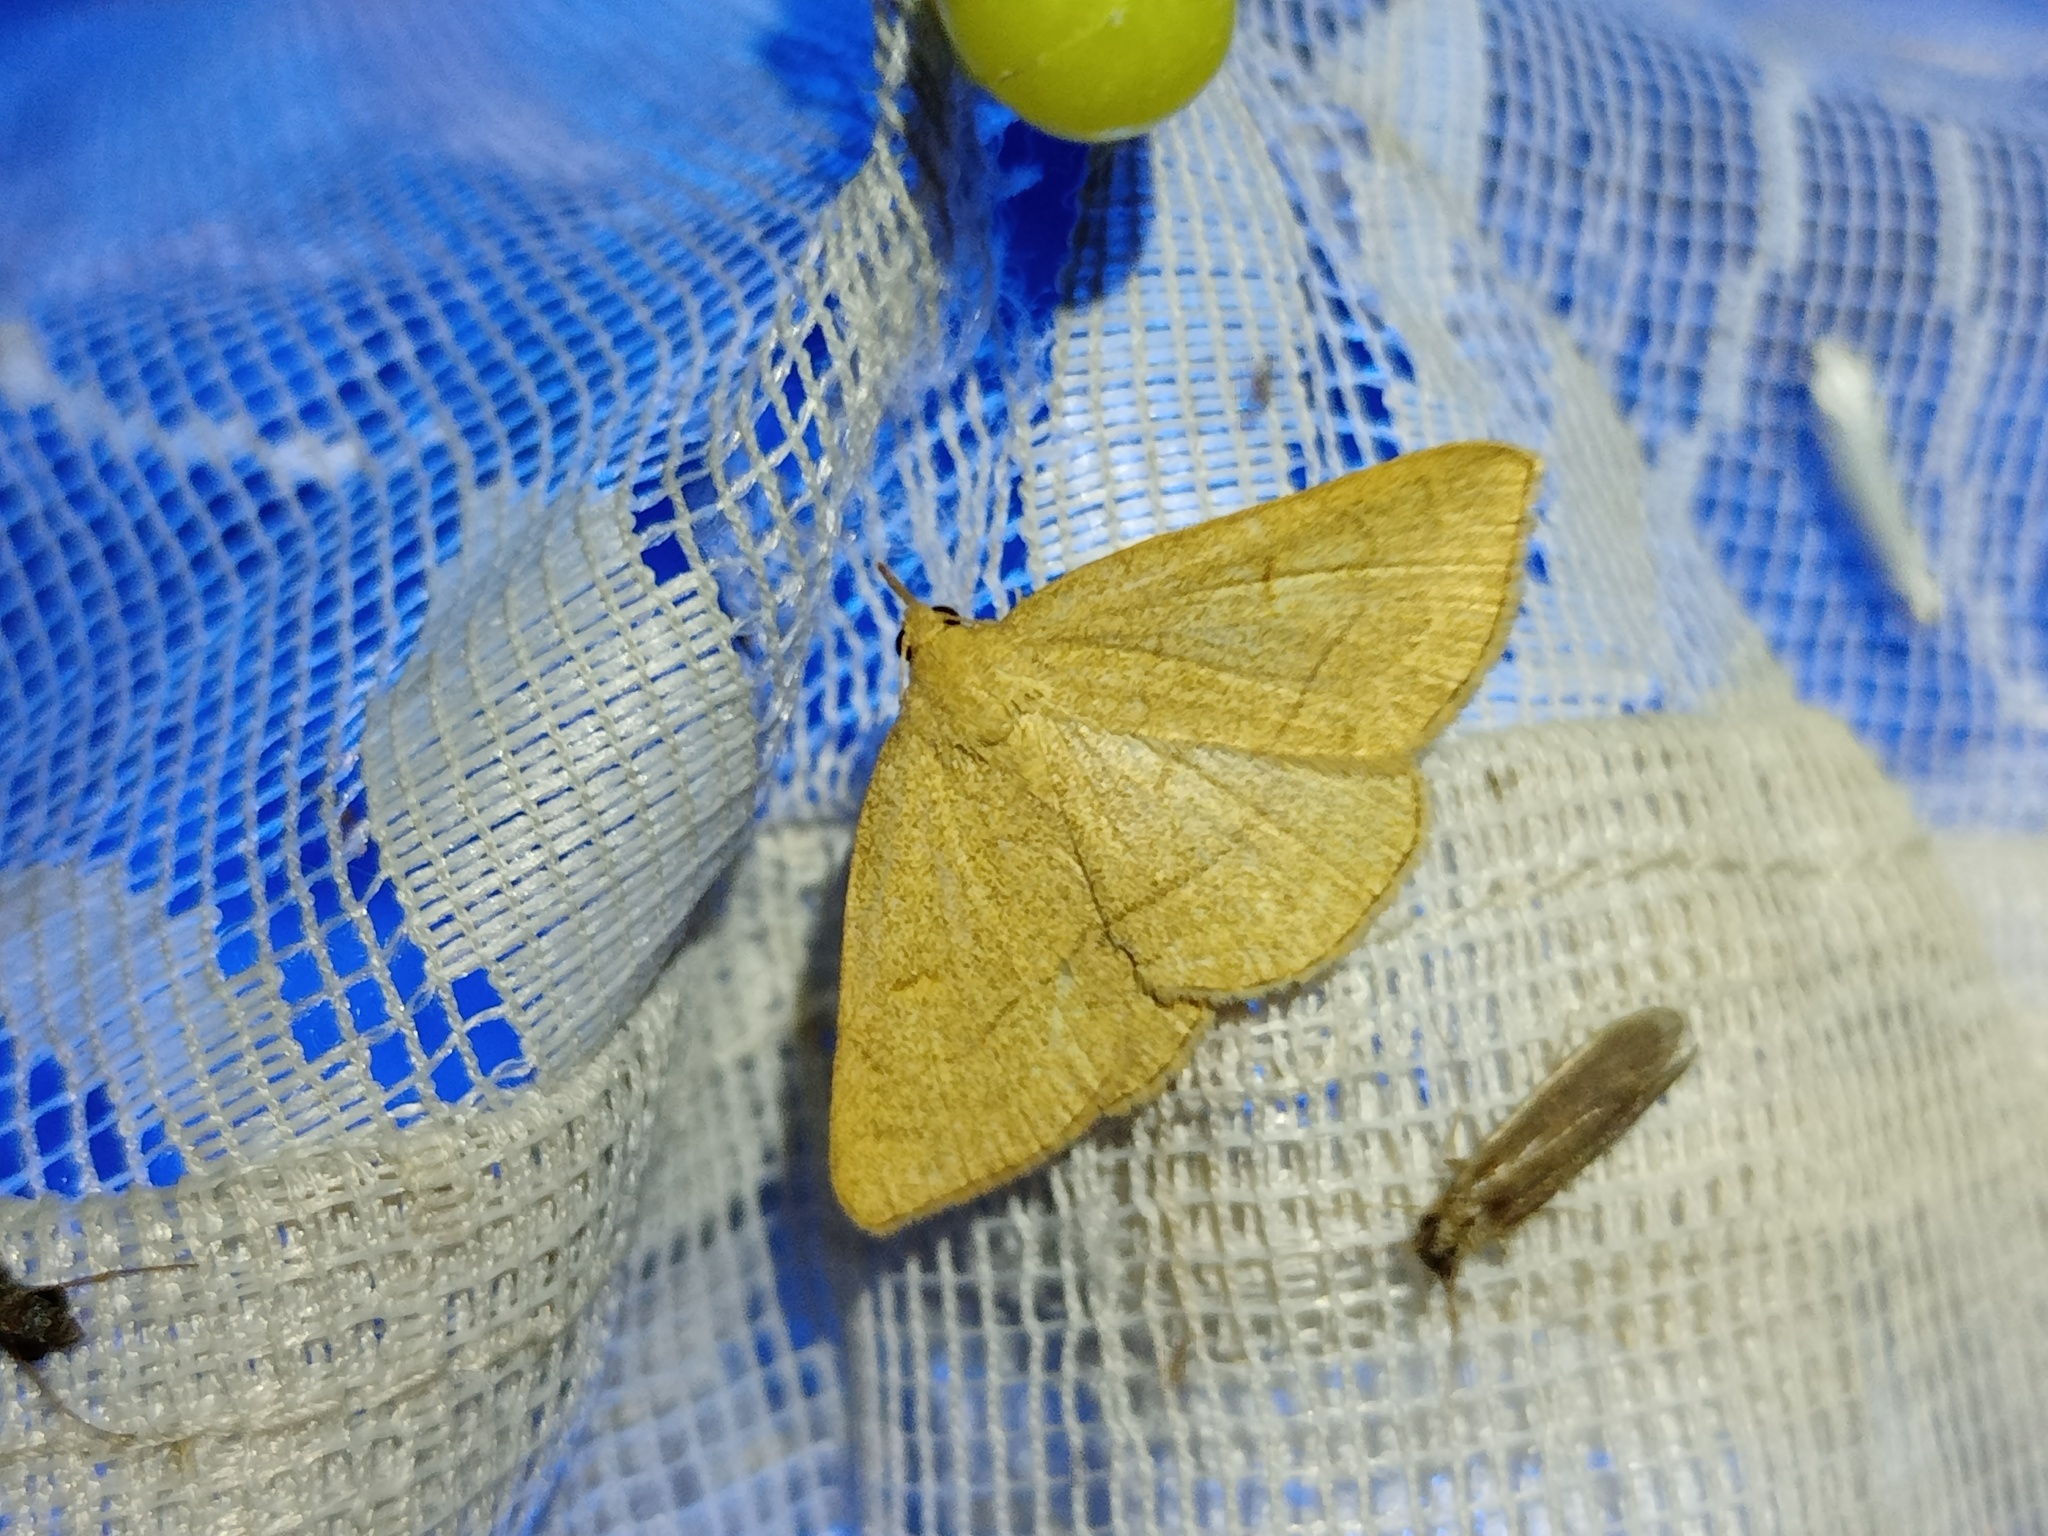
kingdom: Animalia
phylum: Arthropoda
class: Insecta
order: Lepidoptera
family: Erebidae
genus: Paracolax
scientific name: Paracolax tristalis
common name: Clay fan-foot
